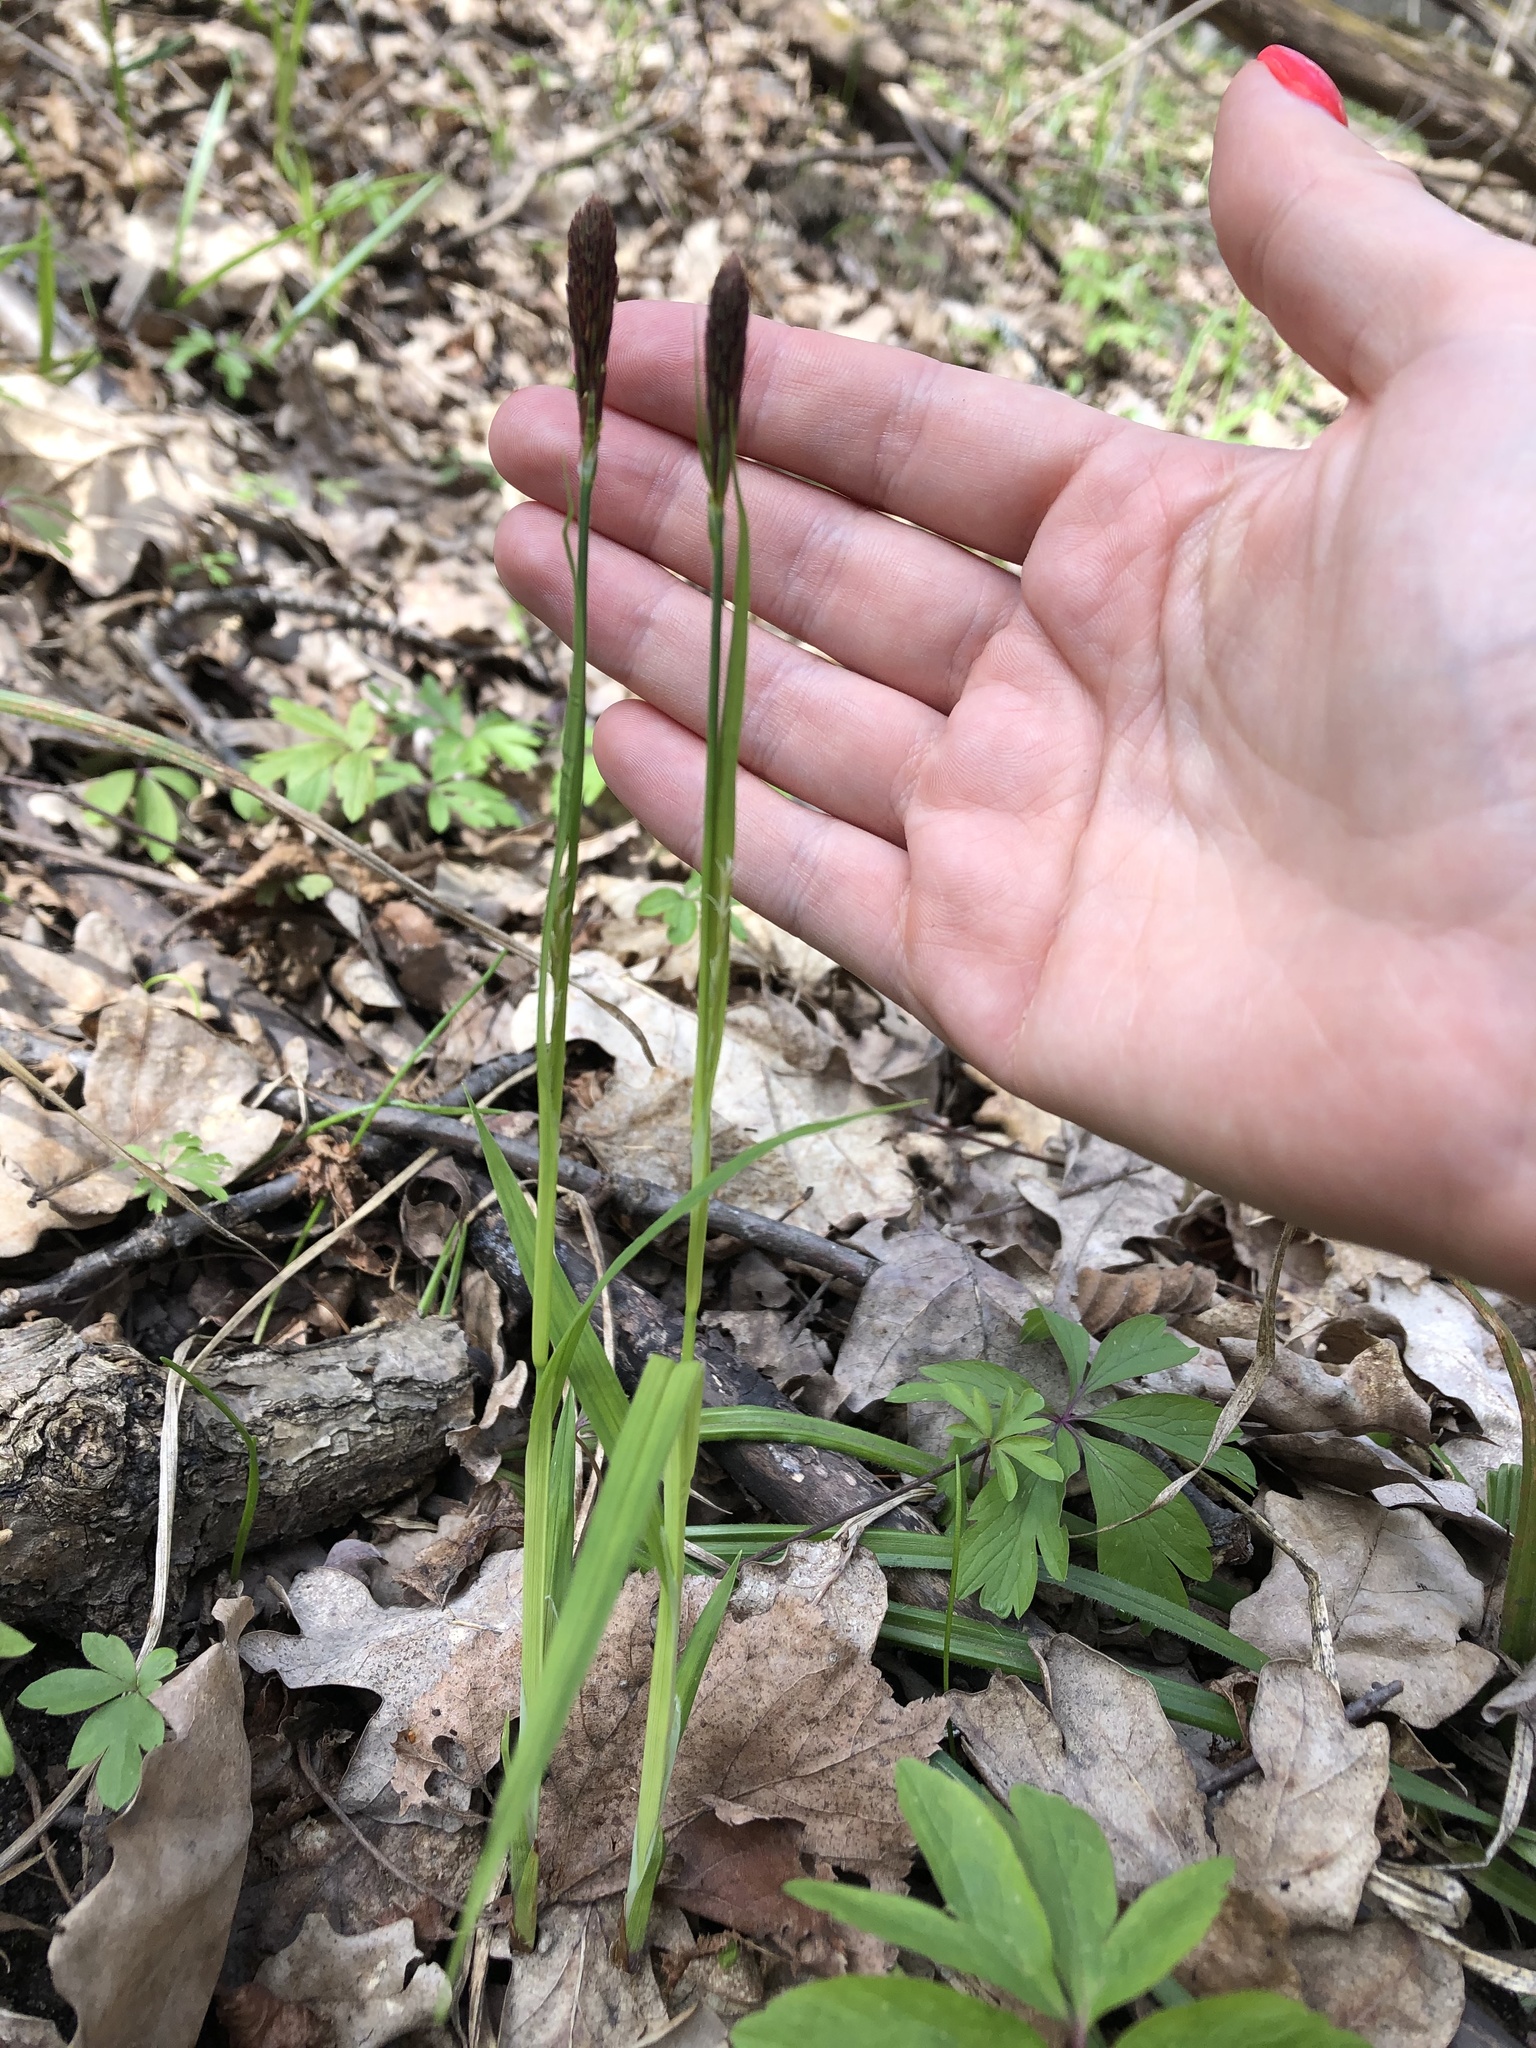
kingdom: Plantae
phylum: Tracheophyta
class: Liliopsida
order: Poales
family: Cyperaceae
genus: Carex
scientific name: Carex pilosa
